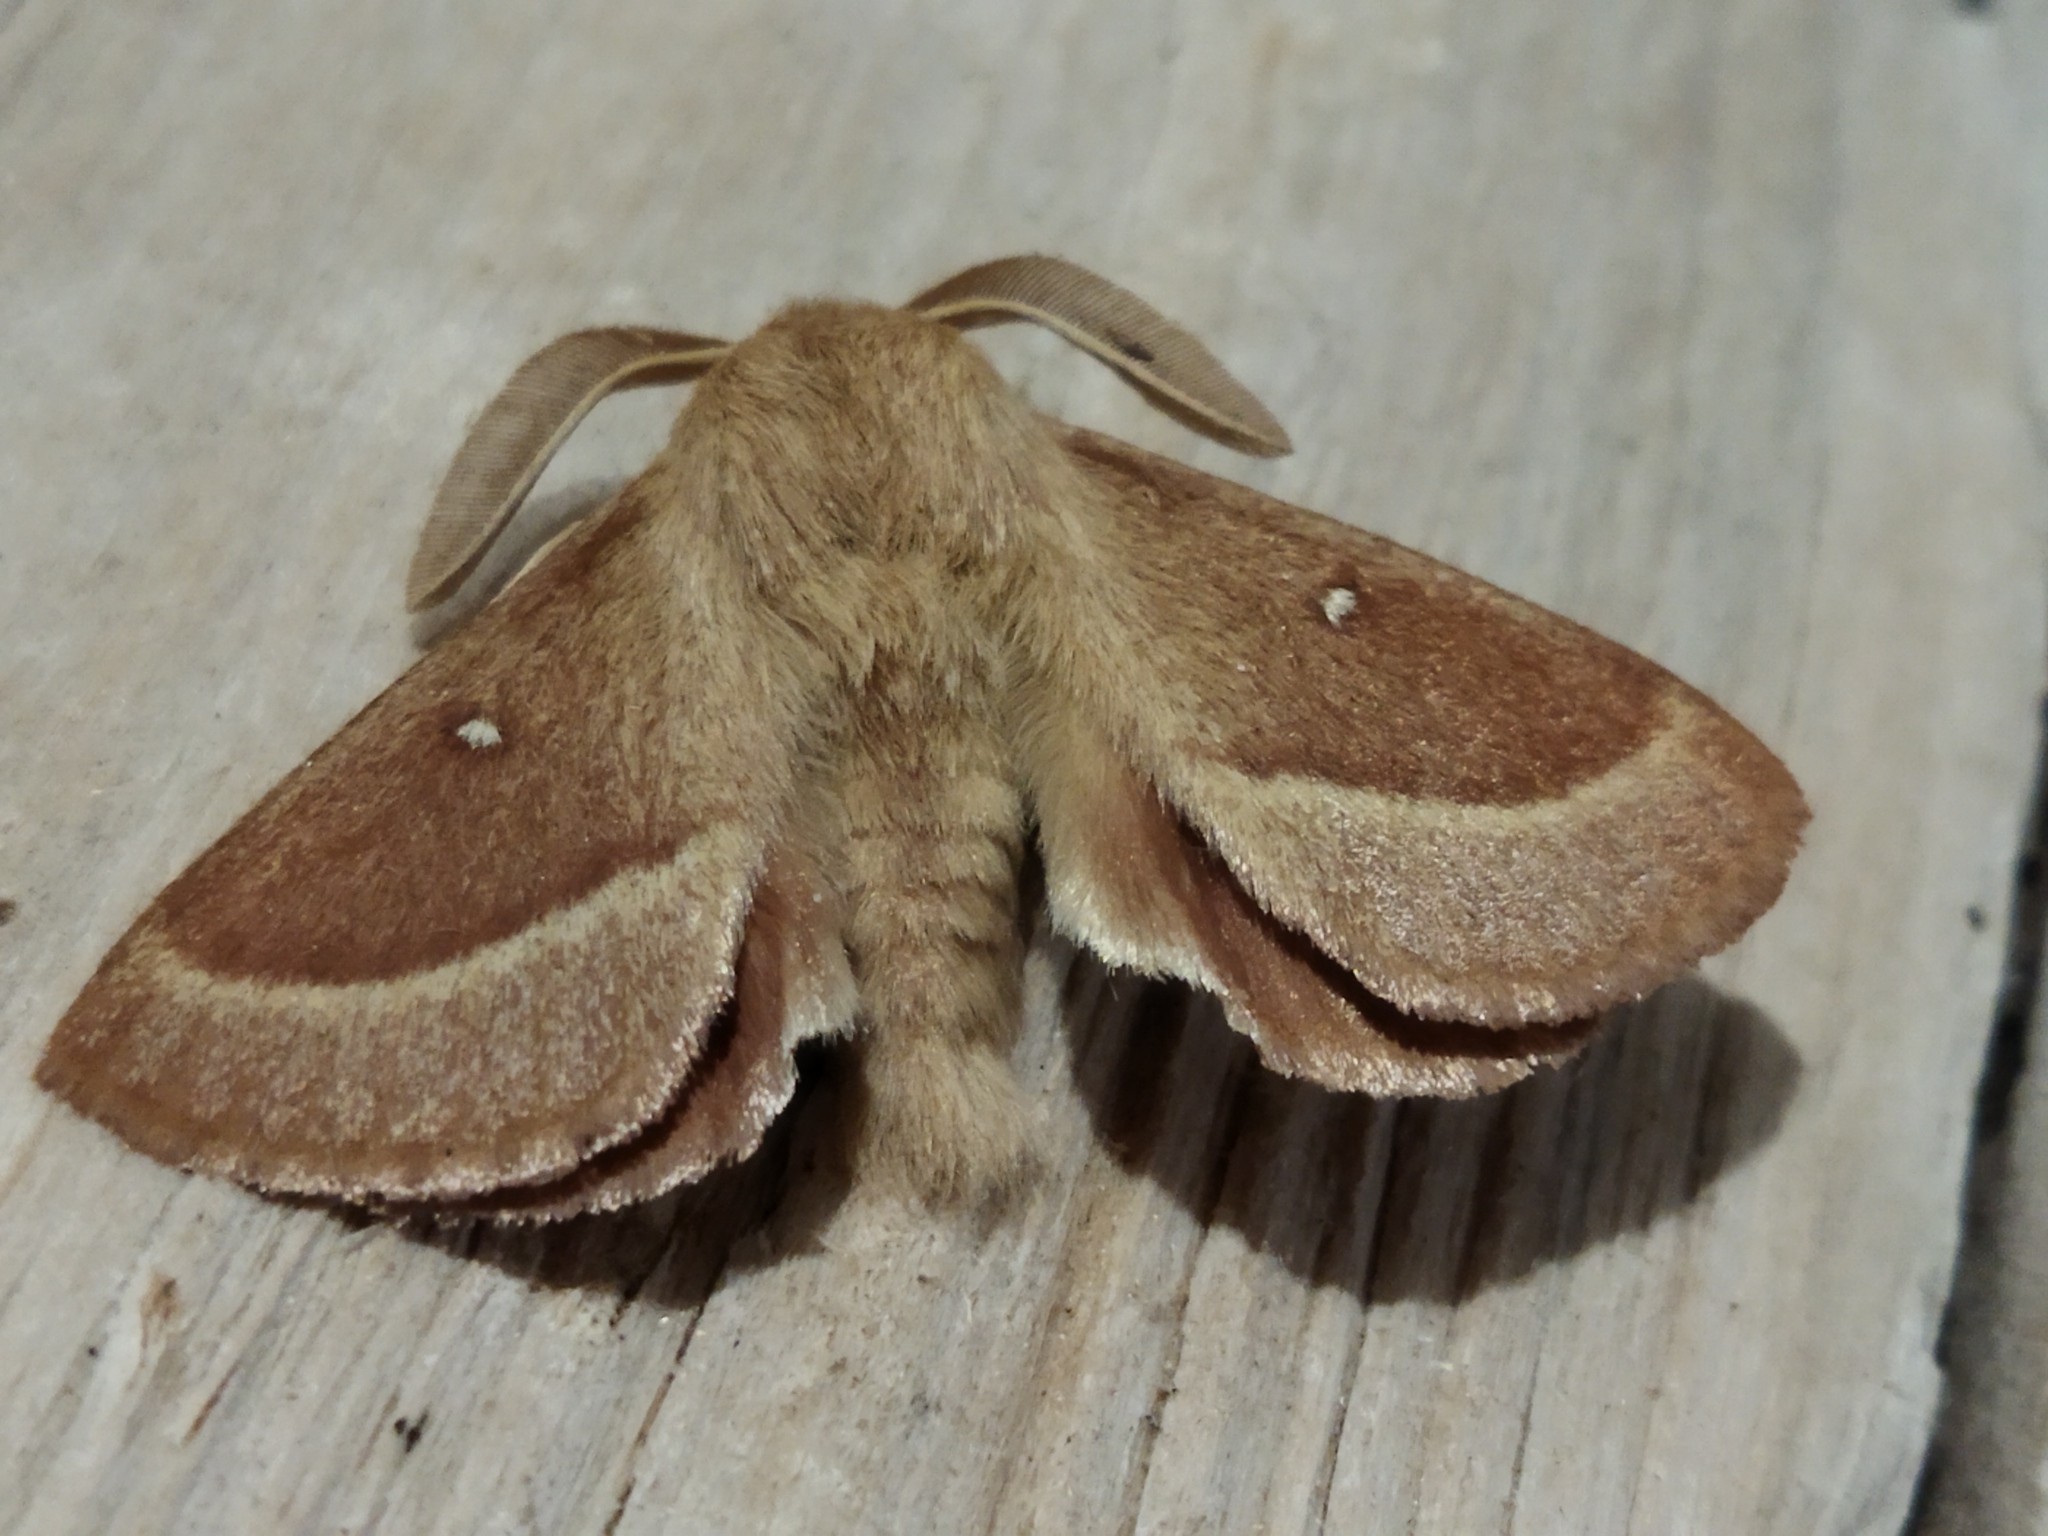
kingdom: Animalia
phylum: Arthropoda
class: Insecta
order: Lepidoptera
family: Lasiocampidae
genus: Lasiocampa
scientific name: Lasiocampa trifolii
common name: Grass eggar
